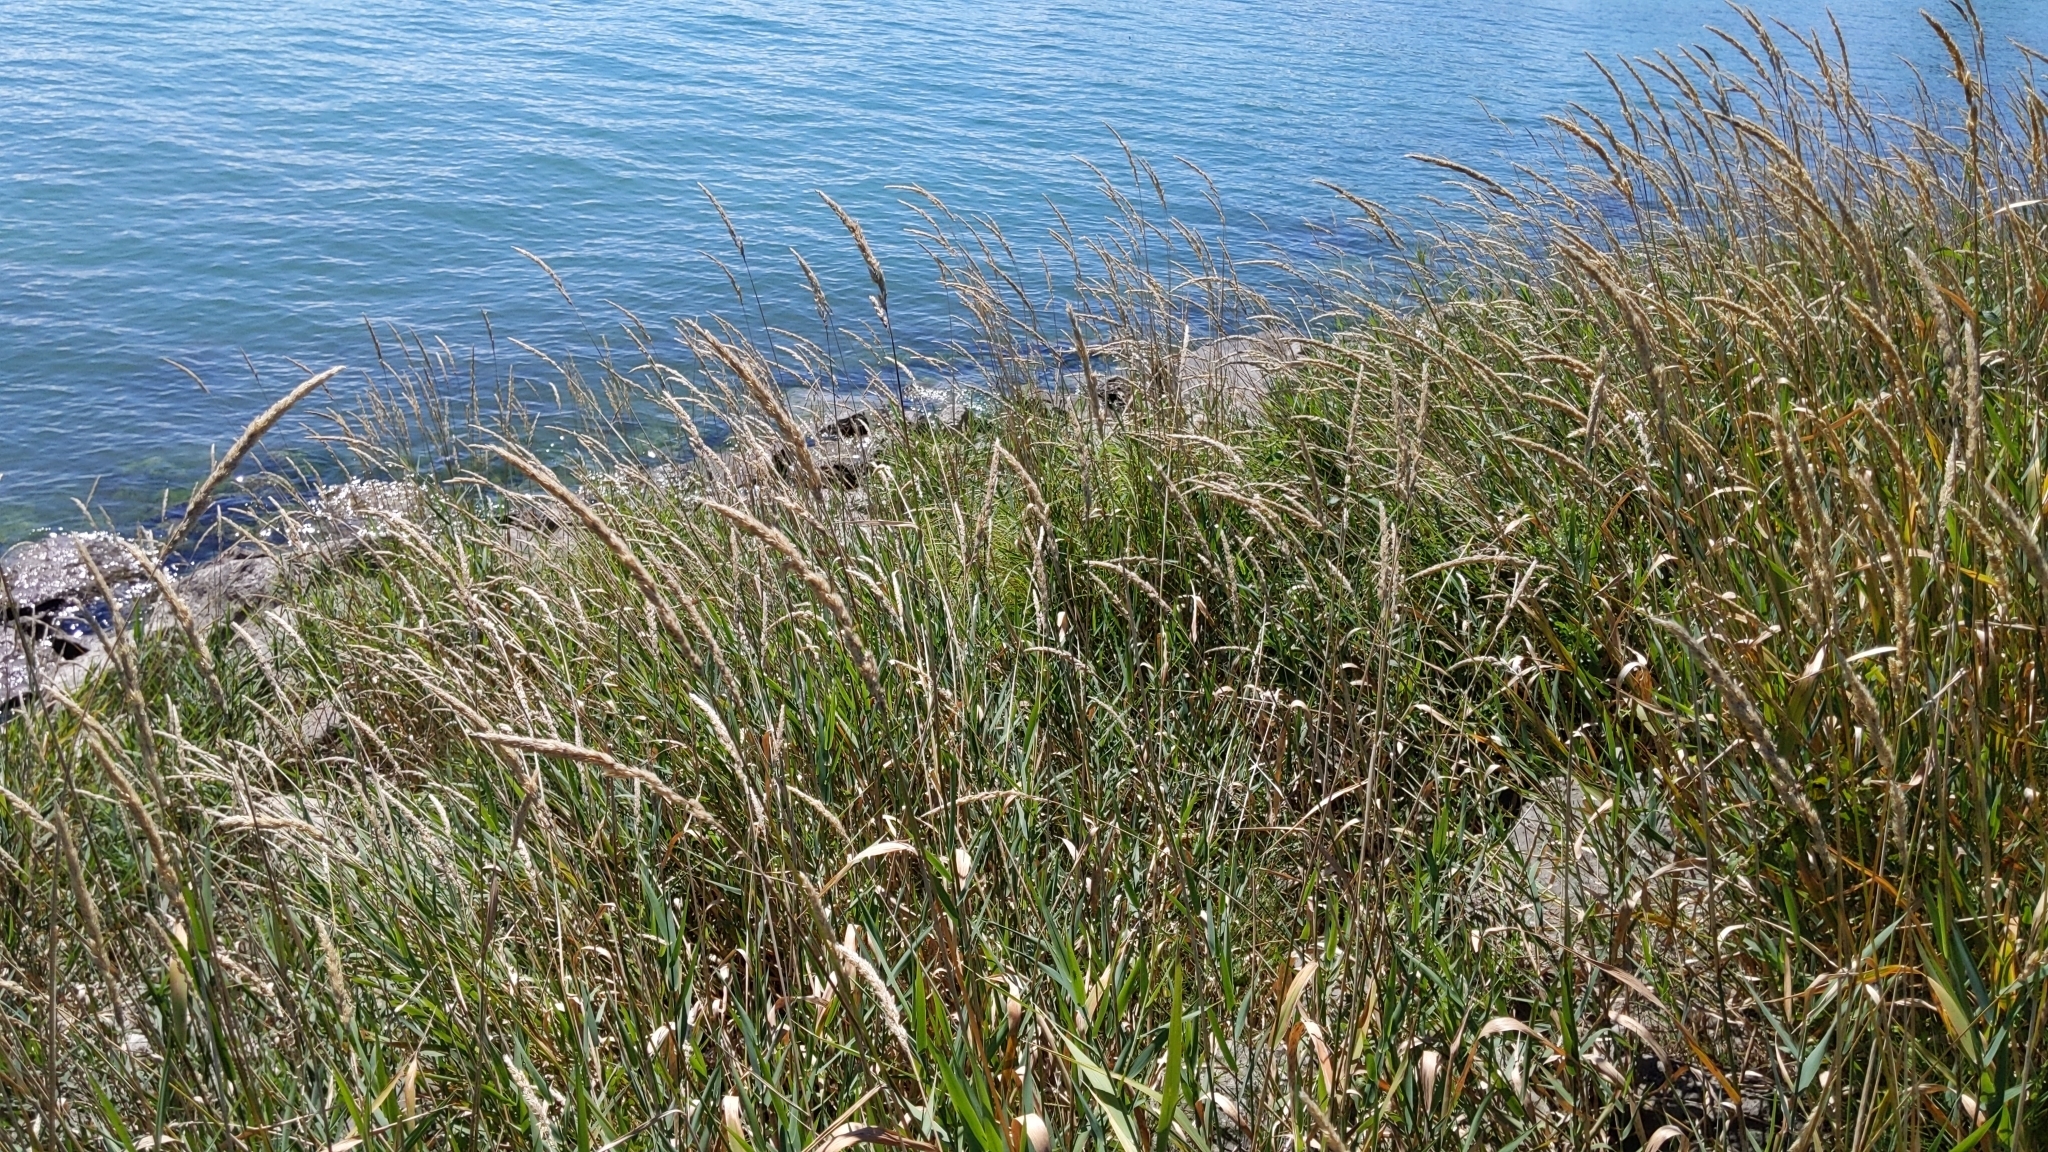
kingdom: Plantae
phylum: Tracheophyta
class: Liliopsida
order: Poales
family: Poaceae
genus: Phalaris
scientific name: Phalaris arundinacea
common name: Reed canary-grass
